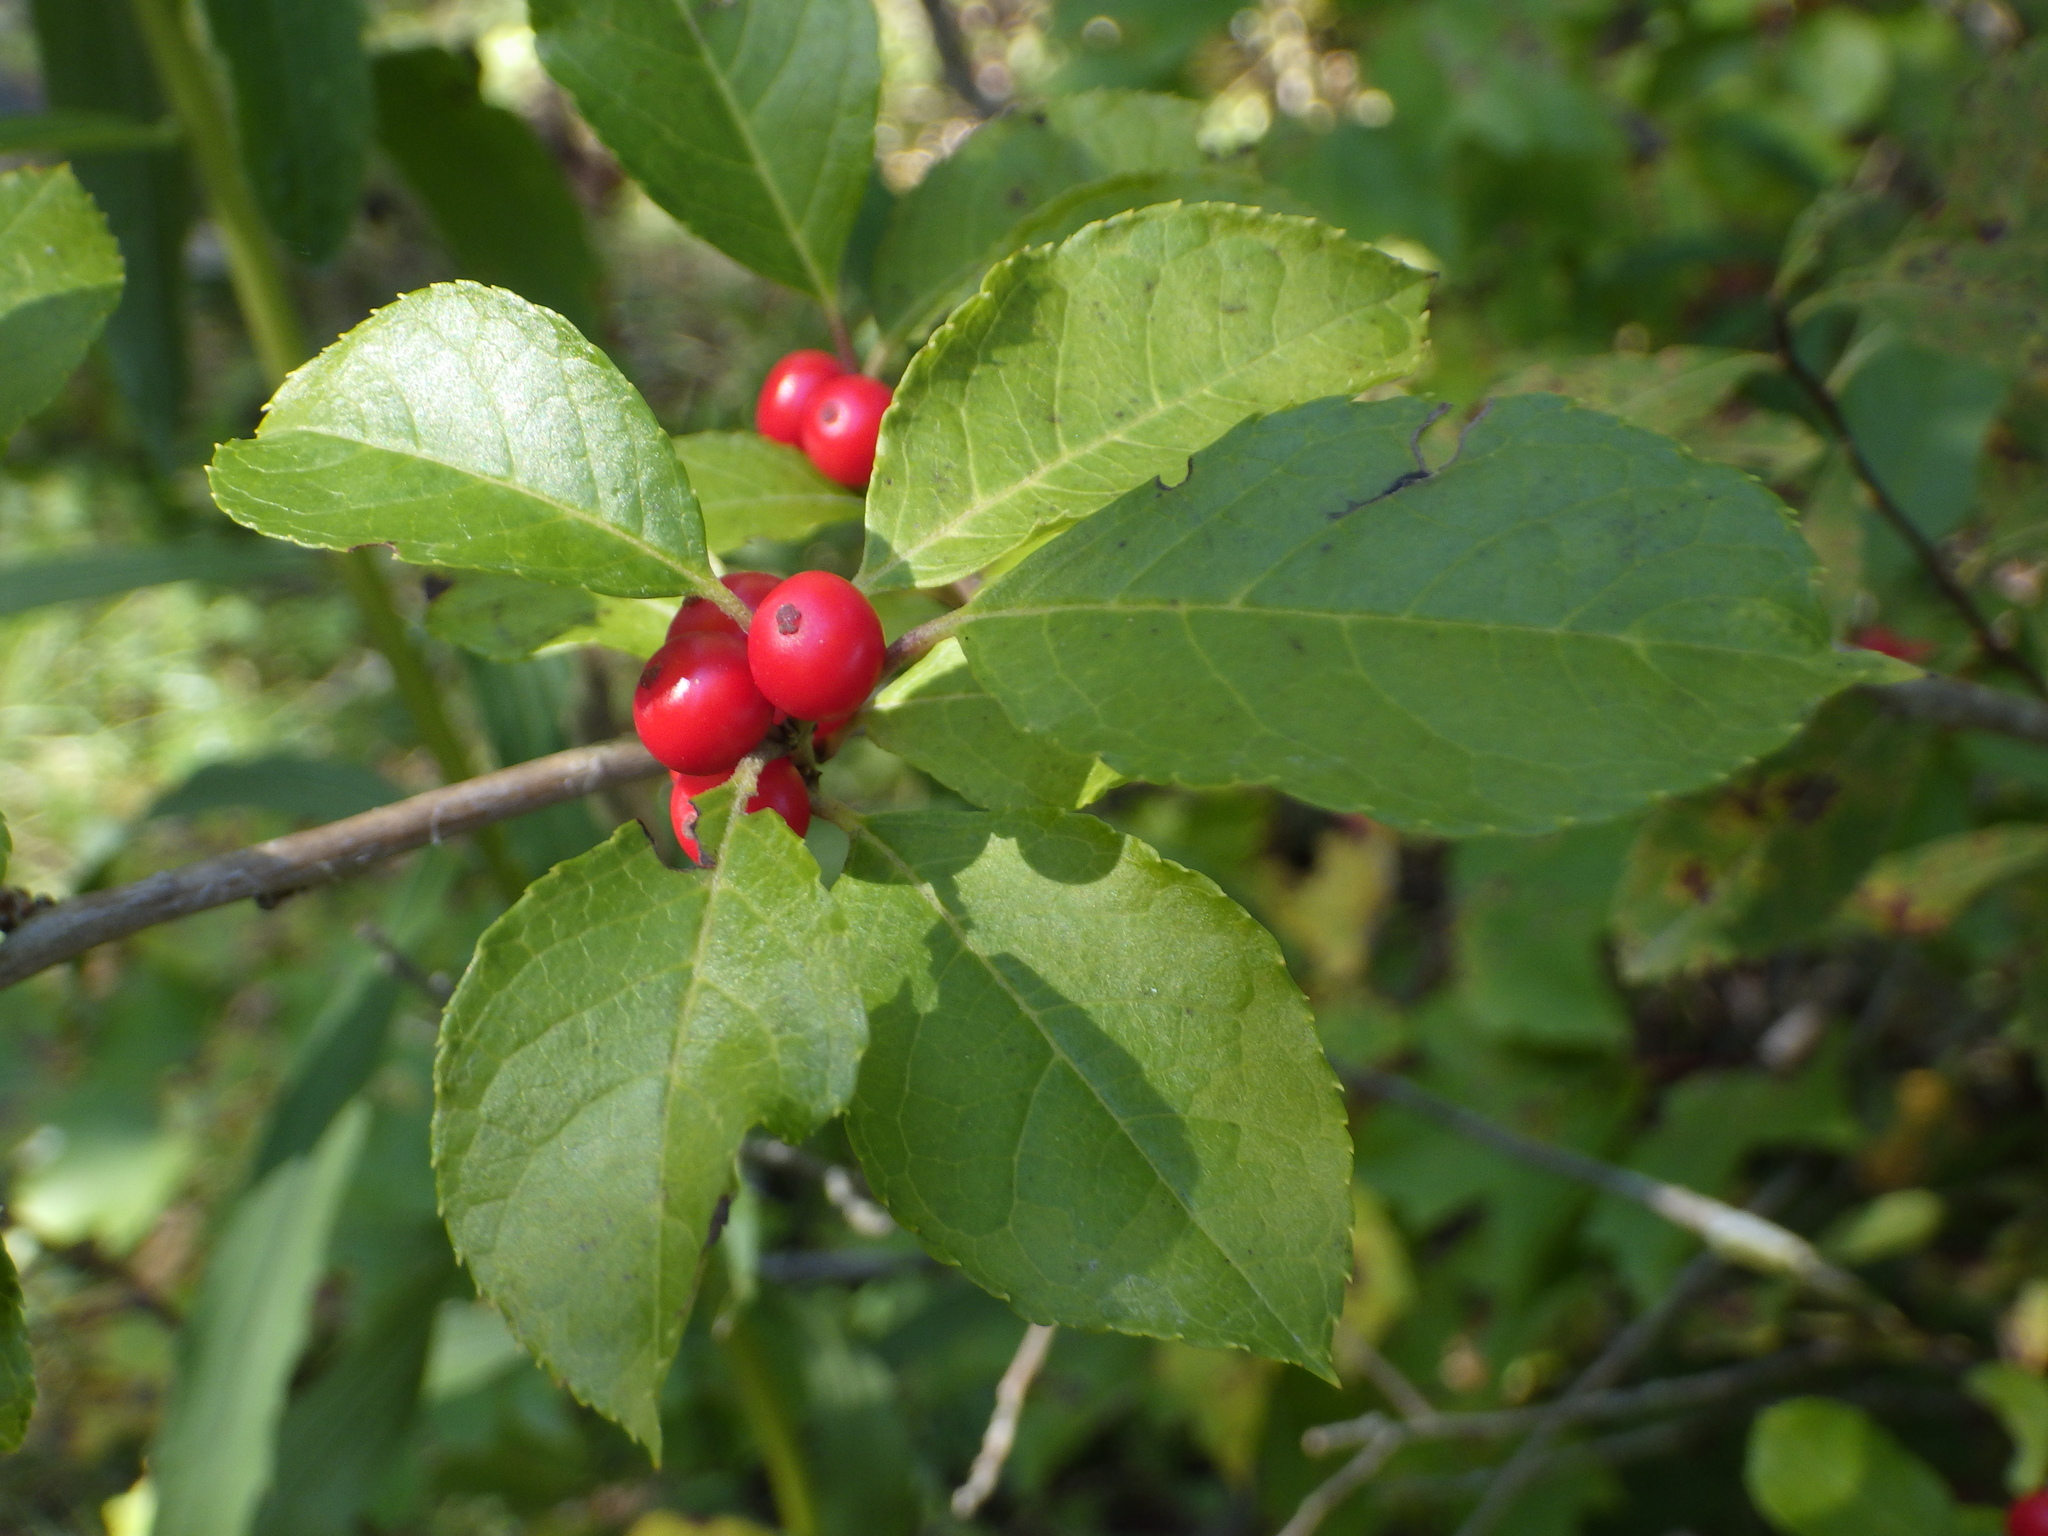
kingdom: Plantae
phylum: Tracheophyta
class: Magnoliopsida
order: Aquifoliales
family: Aquifoliaceae
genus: Ilex
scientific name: Ilex verticillata
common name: Virginia winterberry
